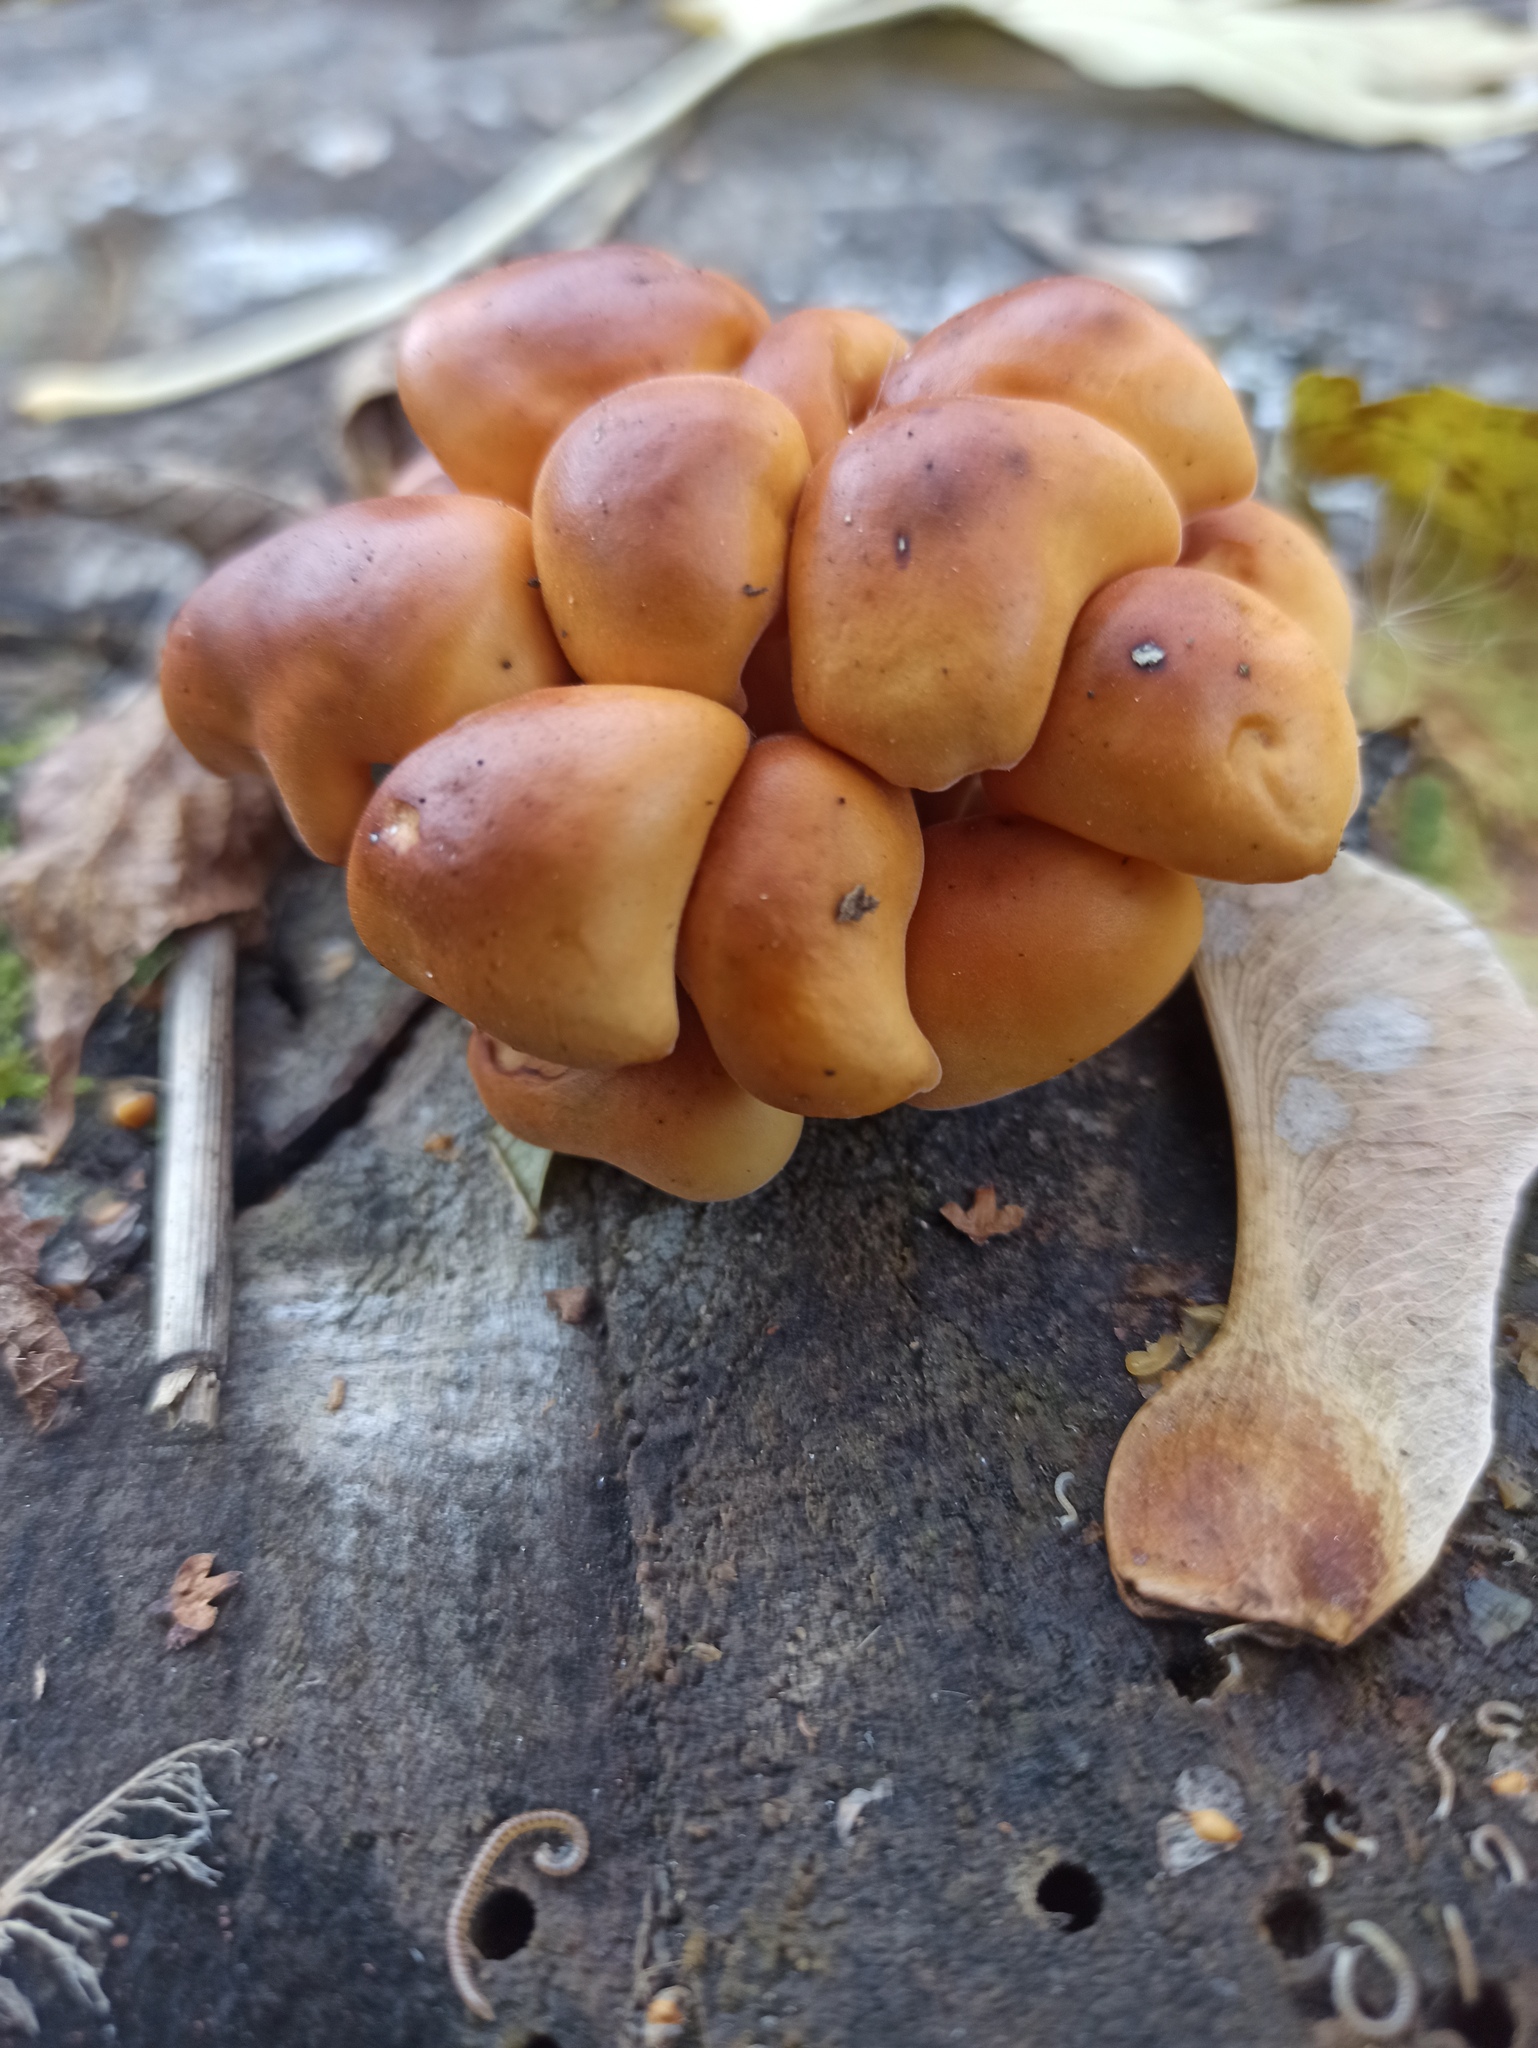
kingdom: Fungi
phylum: Basidiomycota
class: Agaricomycetes
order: Agaricales
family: Physalacriaceae
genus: Flammulina
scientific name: Flammulina
